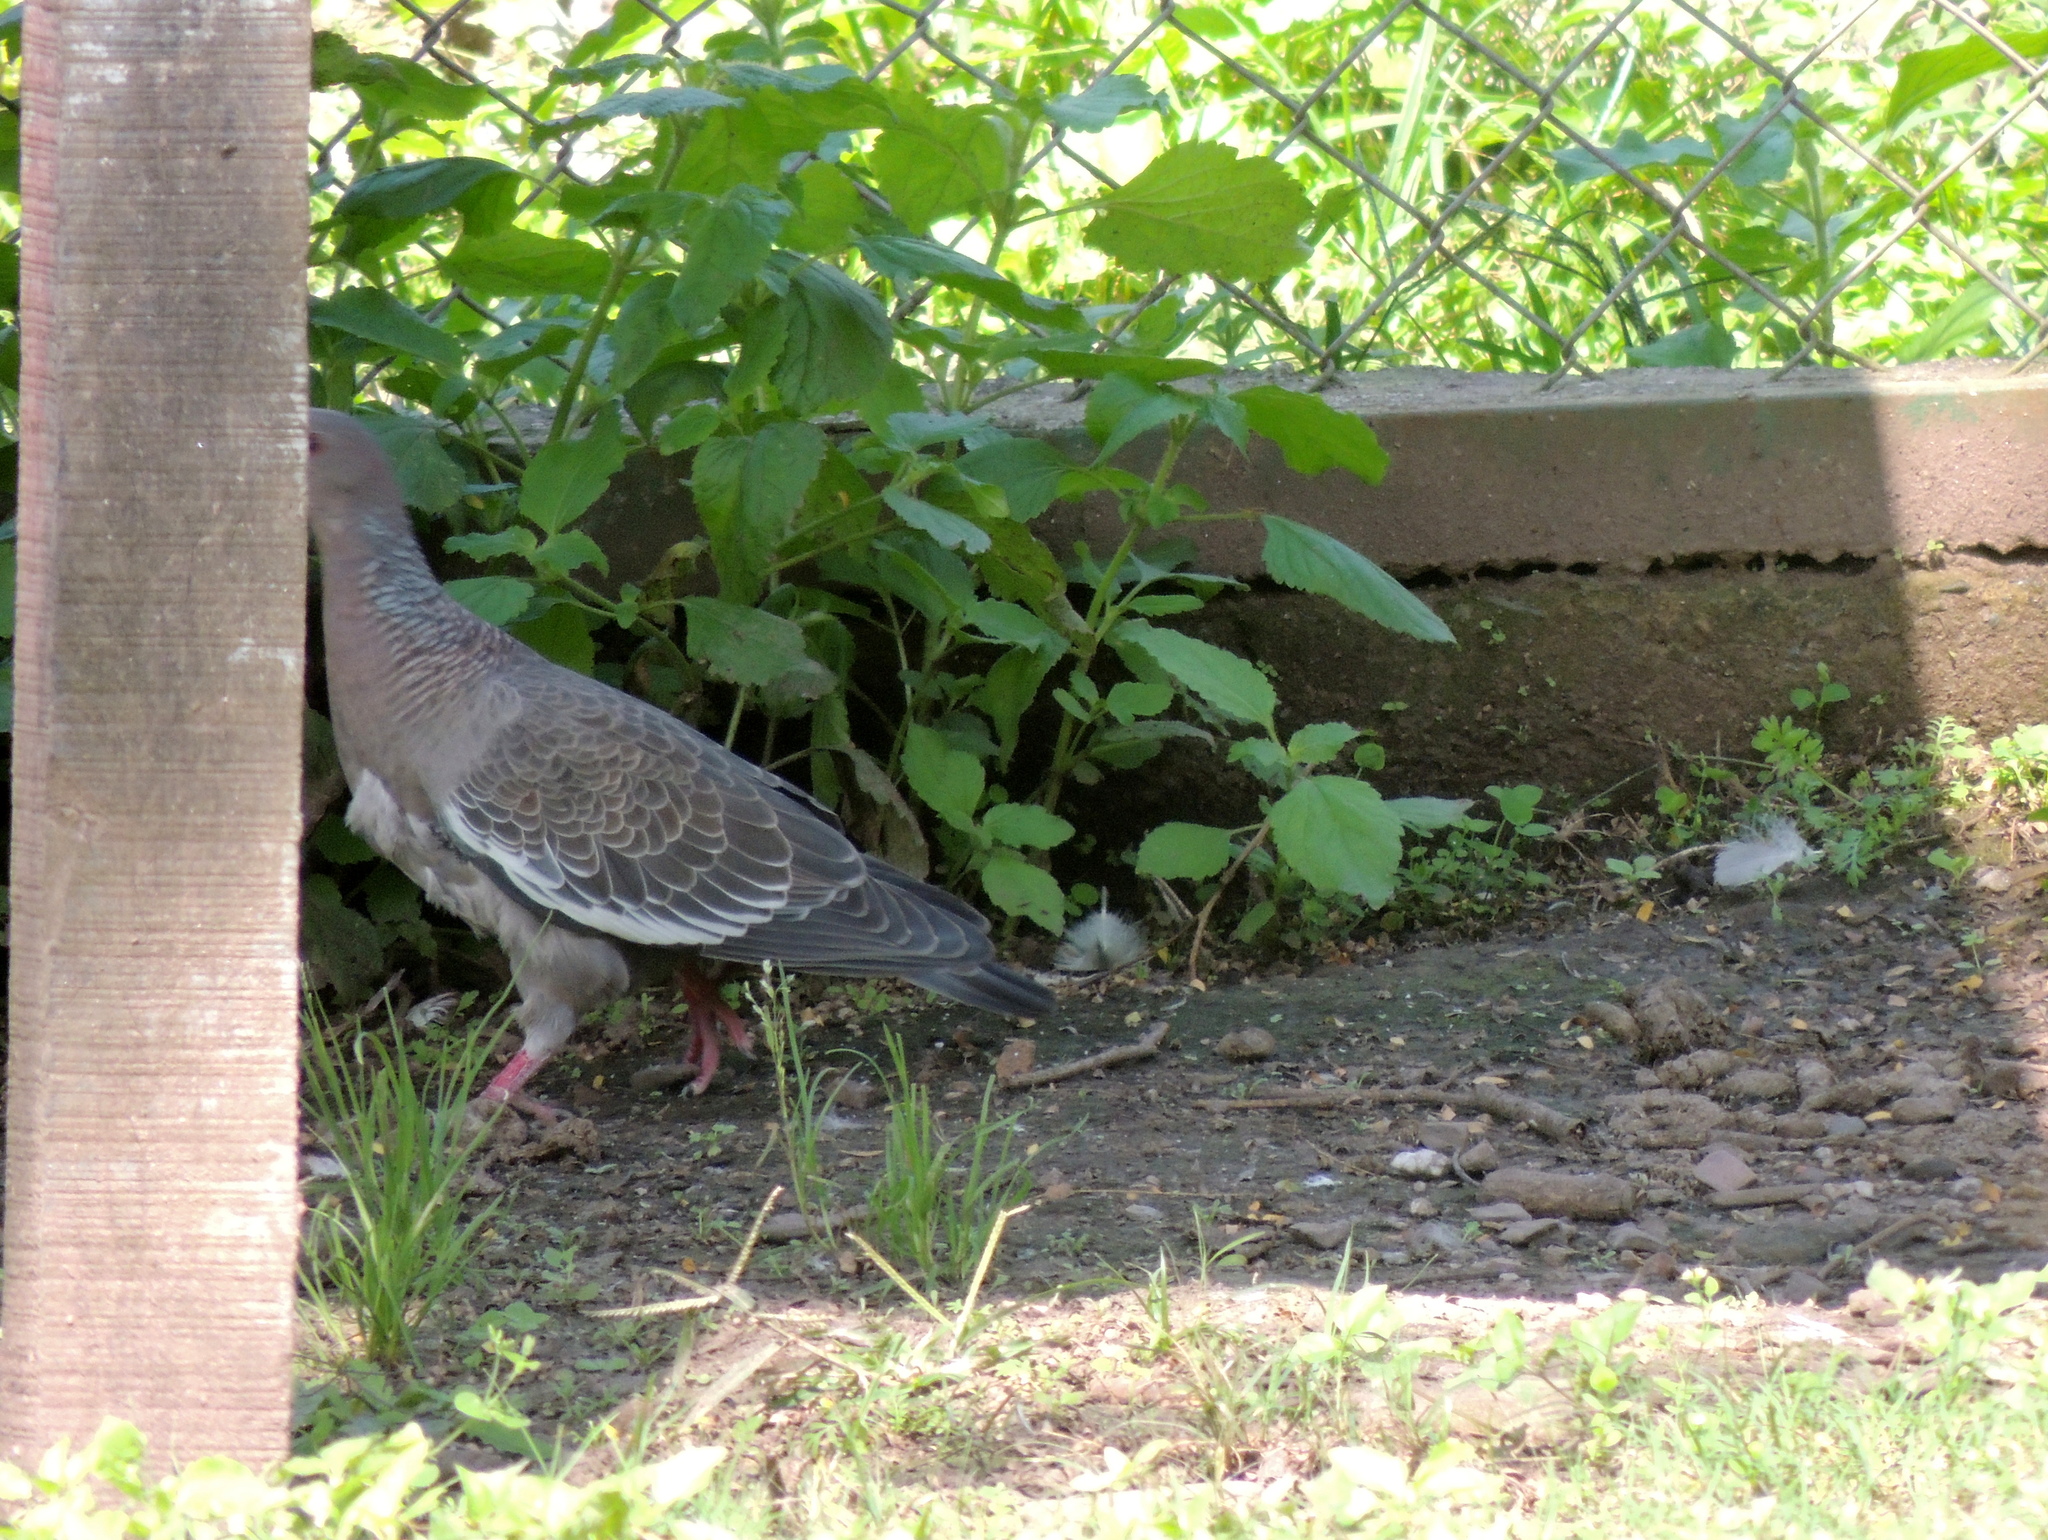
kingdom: Animalia
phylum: Chordata
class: Aves
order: Columbiformes
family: Columbidae
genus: Patagioenas
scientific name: Patagioenas picazuro
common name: Picazuro pigeon
